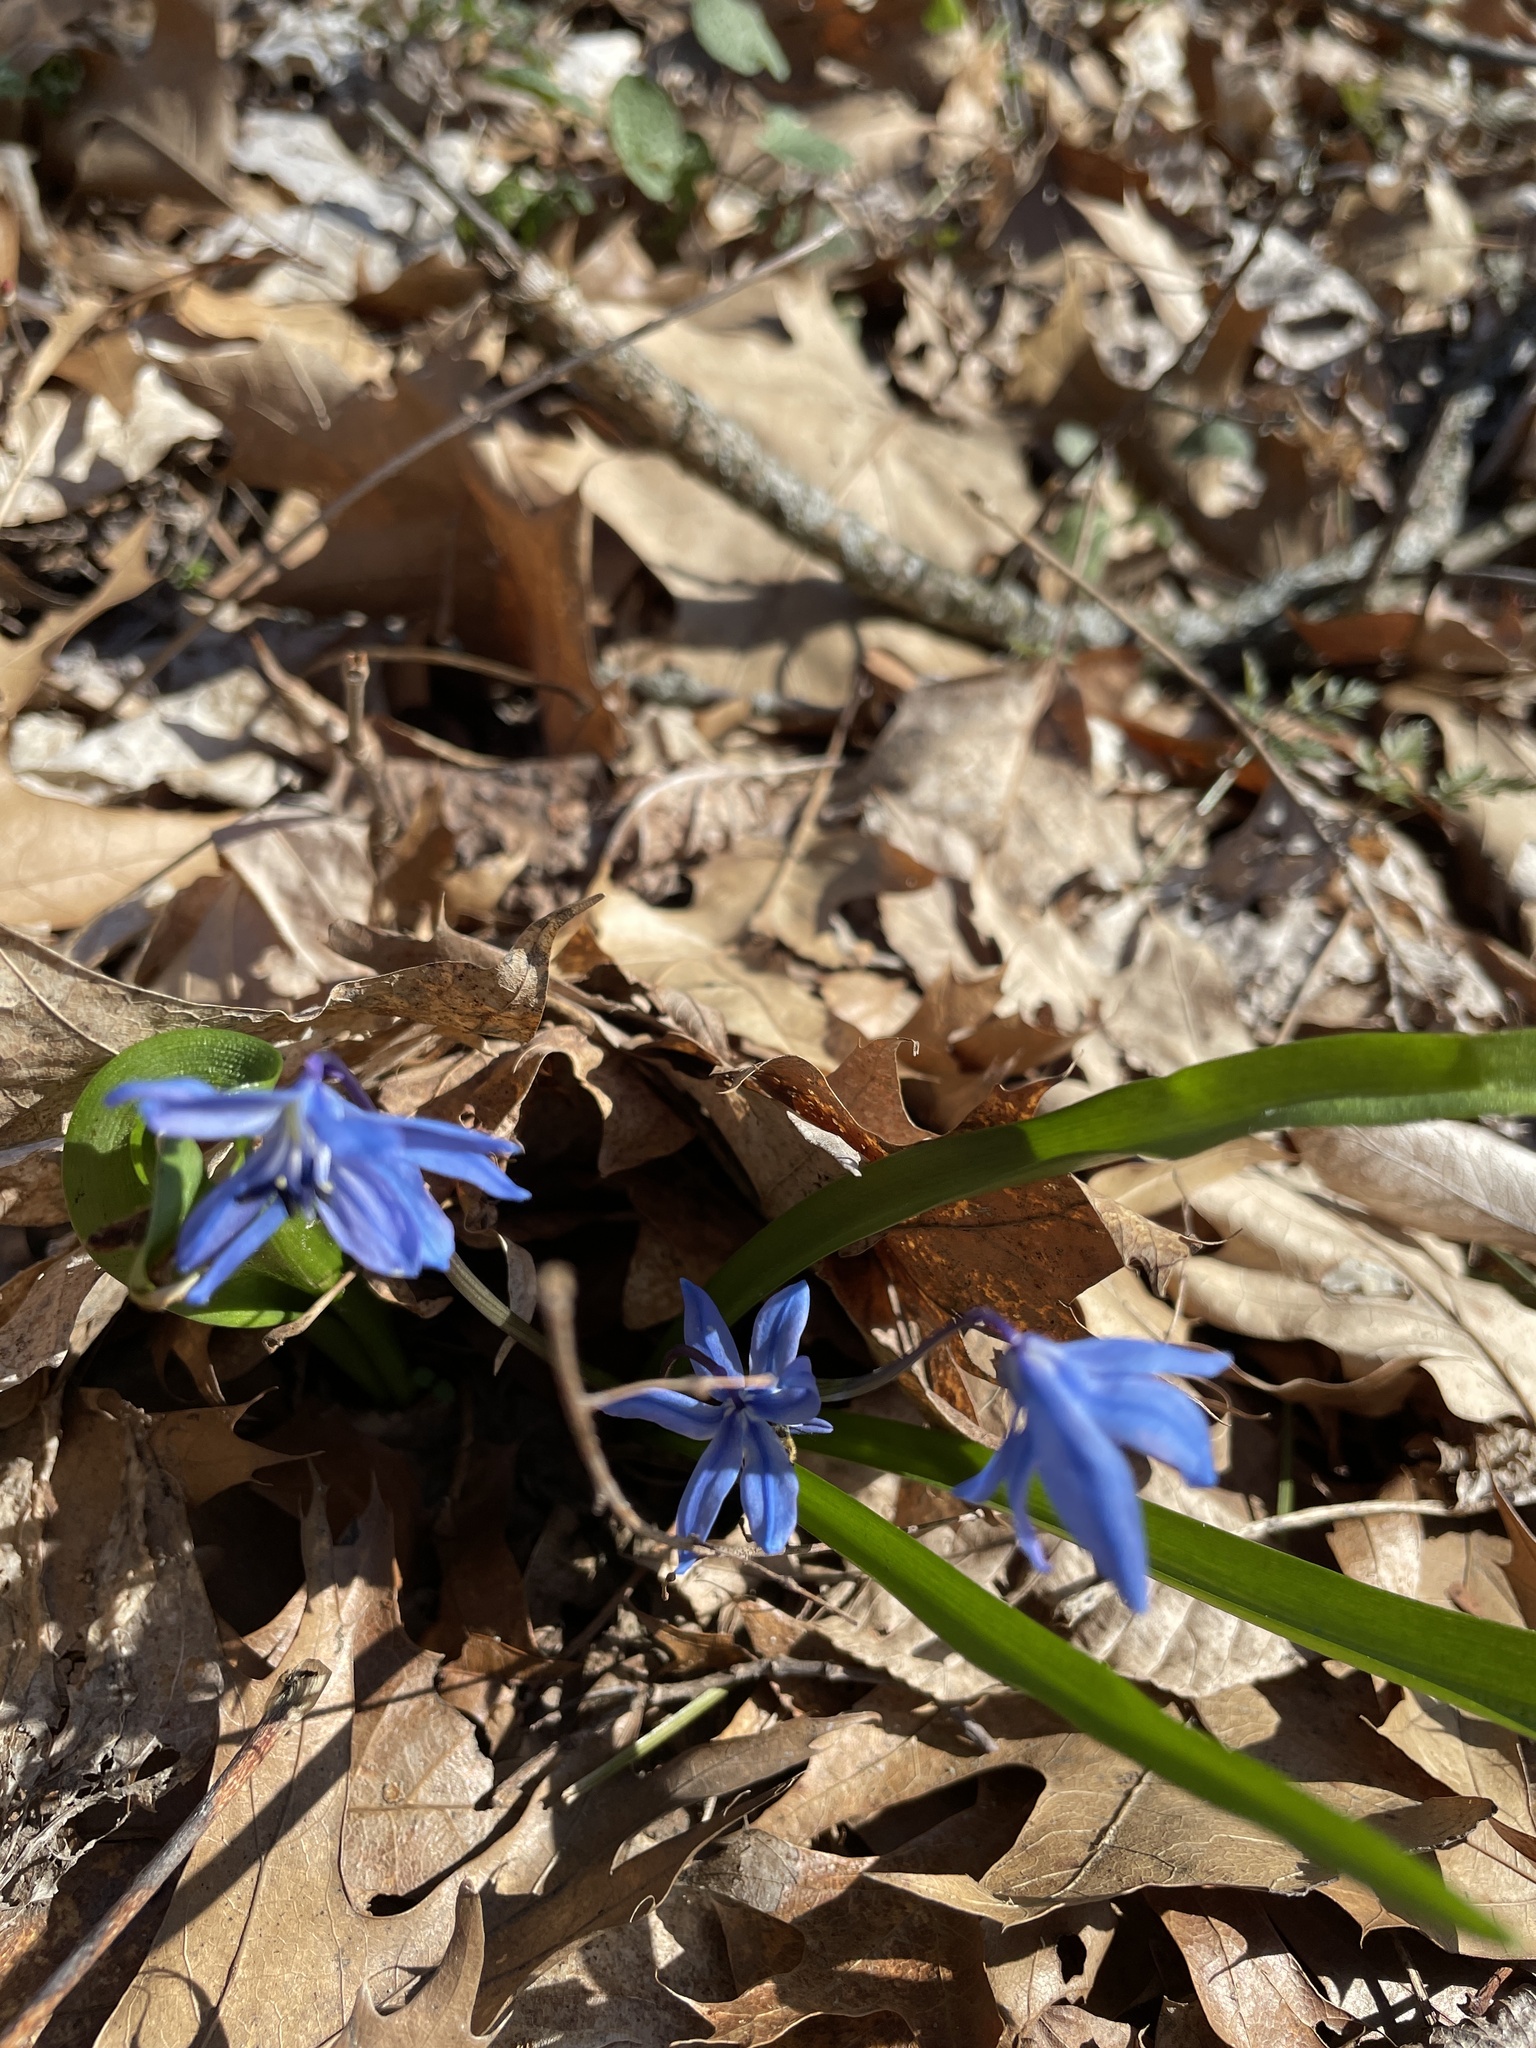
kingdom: Plantae
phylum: Tracheophyta
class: Liliopsida
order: Asparagales
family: Asparagaceae
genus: Scilla
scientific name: Scilla siberica
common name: Siberian squill
